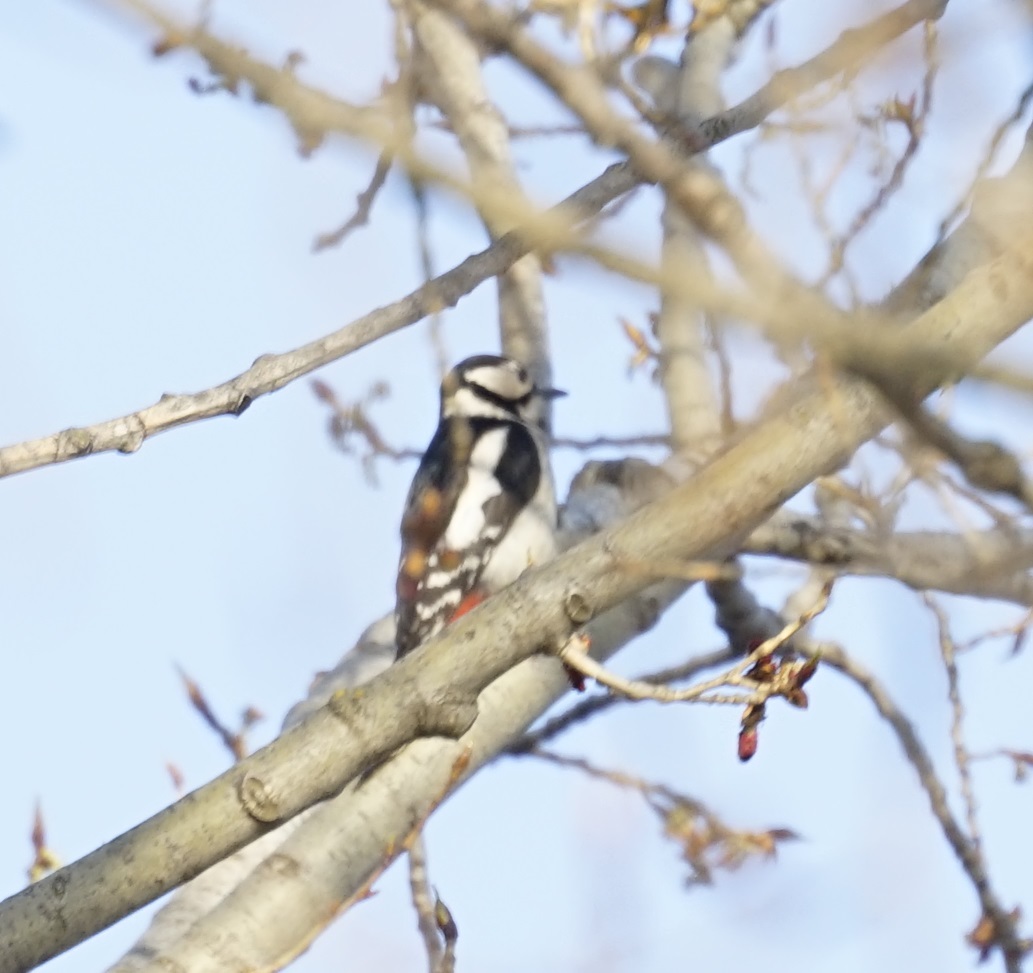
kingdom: Animalia
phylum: Chordata
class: Aves
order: Piciformes
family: Picidae
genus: Dendrocopos
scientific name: Dendrocopos major
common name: Great spotted woodpecker
